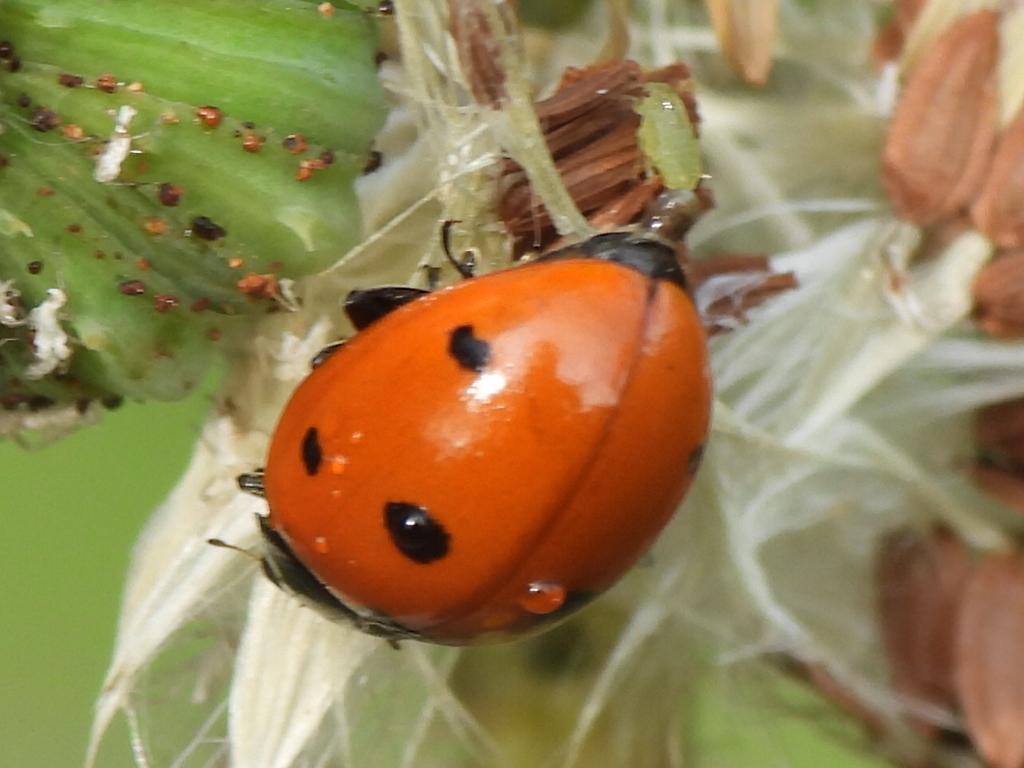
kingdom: Animalia
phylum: Arthropoda
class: Insecta
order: Coleoptera
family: Coccinellidae
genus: Coccinella
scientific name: Coccinella septempunctata
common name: Sevenspotted lady beetle
